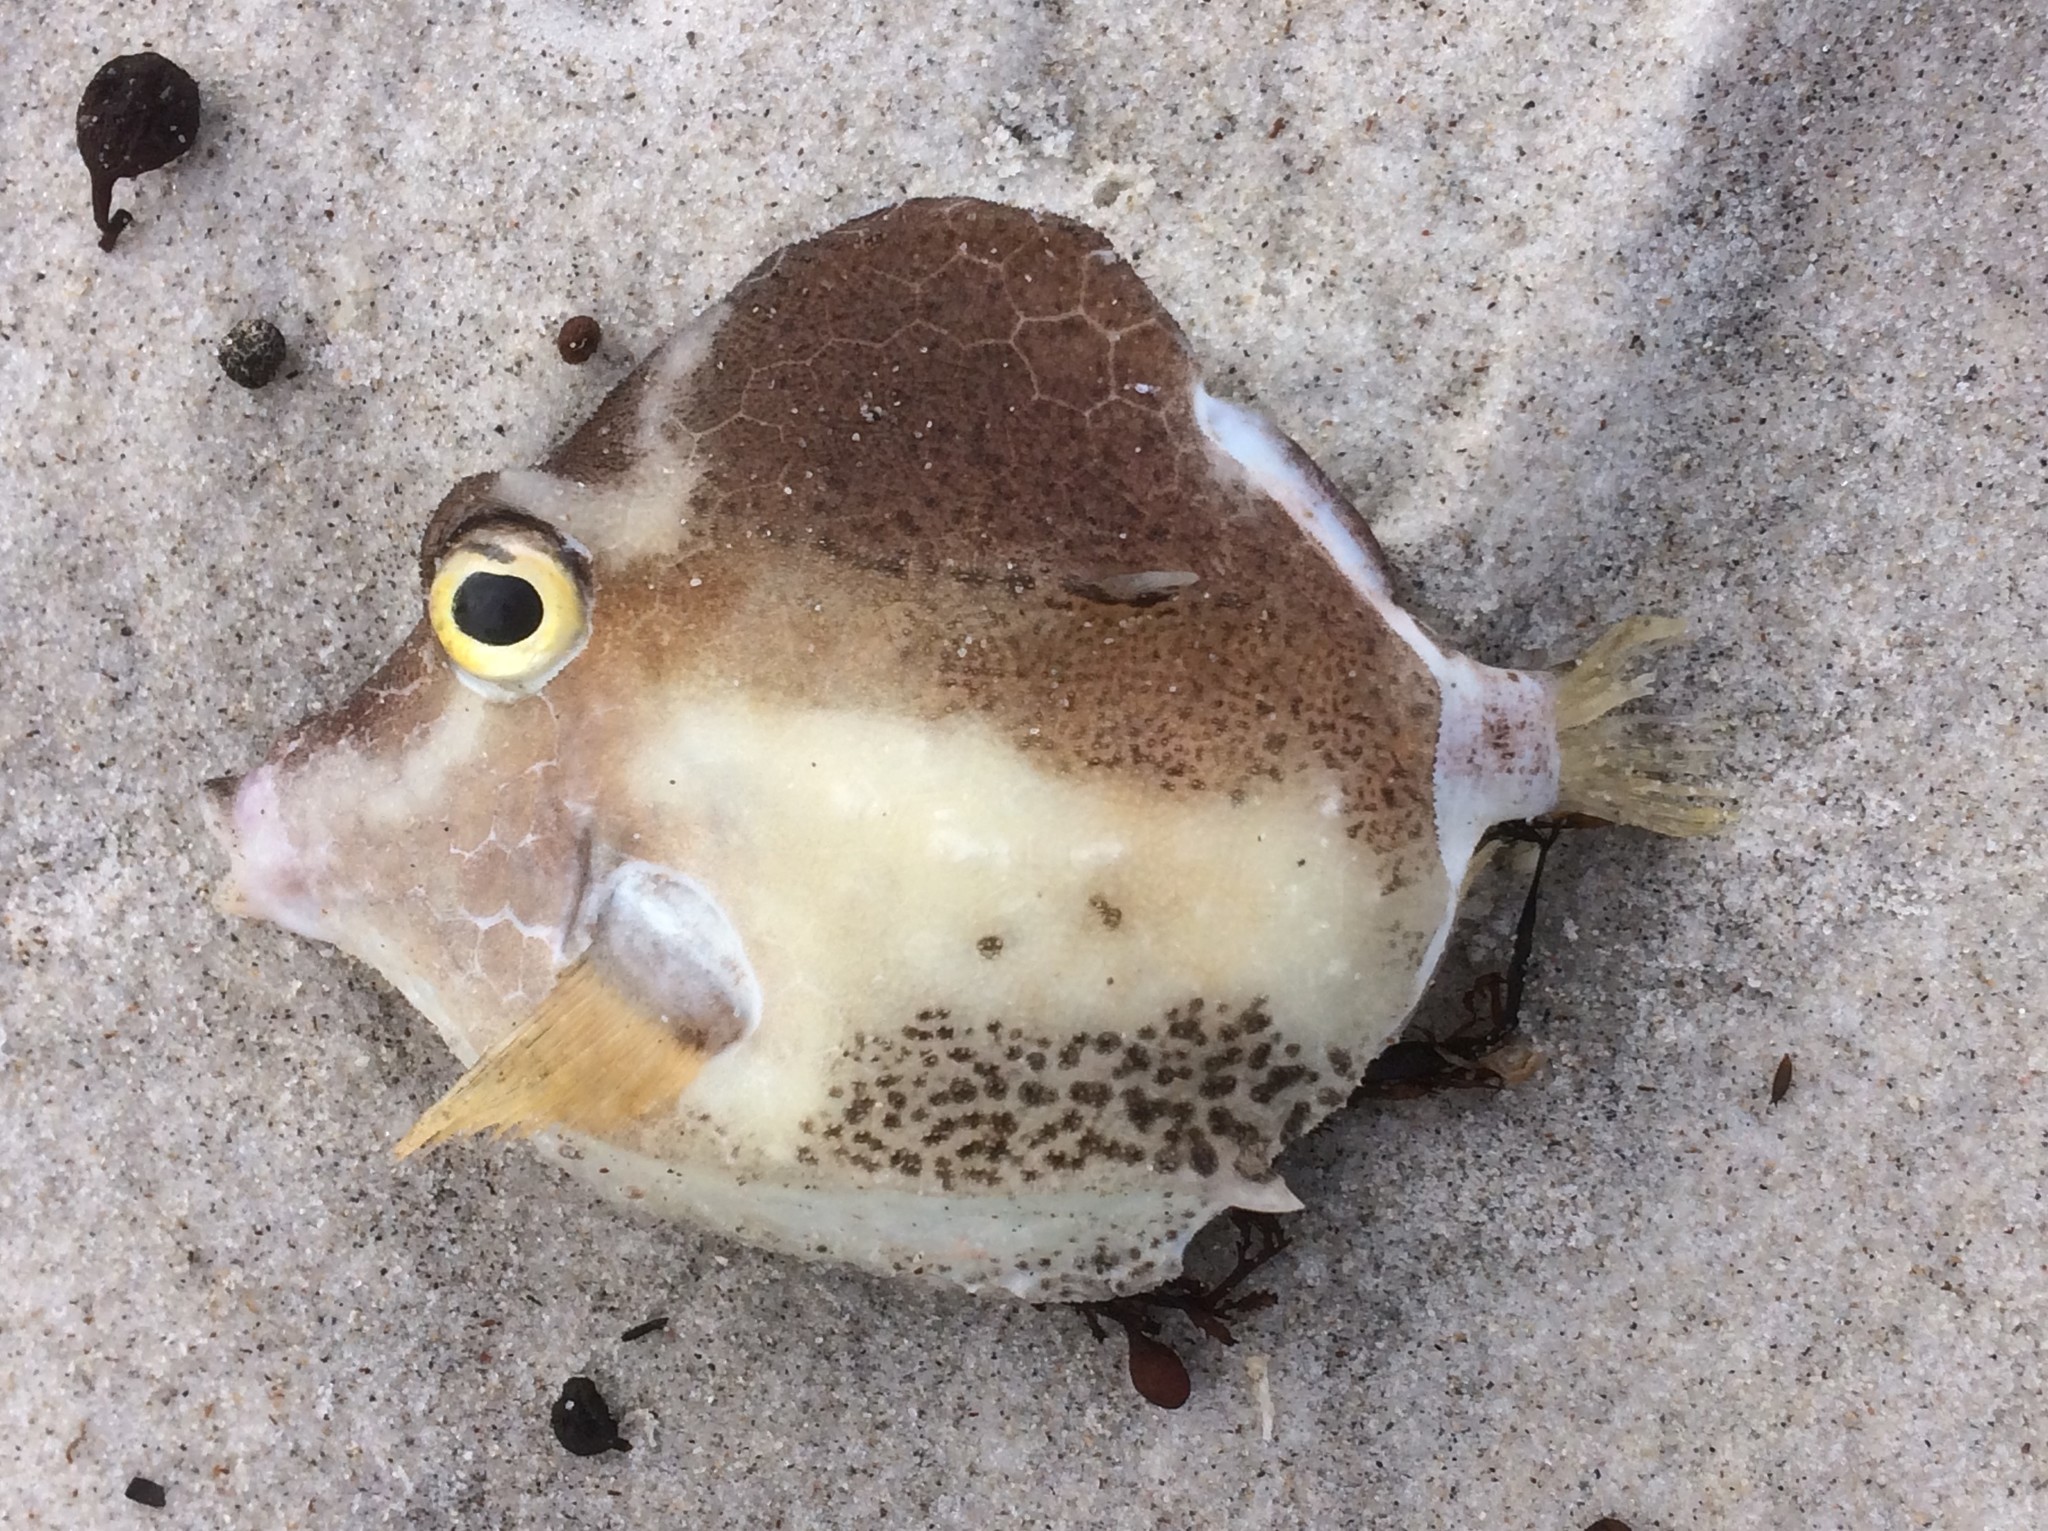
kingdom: Animalia
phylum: Chordata
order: Tetraodontiformes
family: Aracanidae
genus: Caprichthys
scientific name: Caprichthys gymnura
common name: Rigid boxfish
